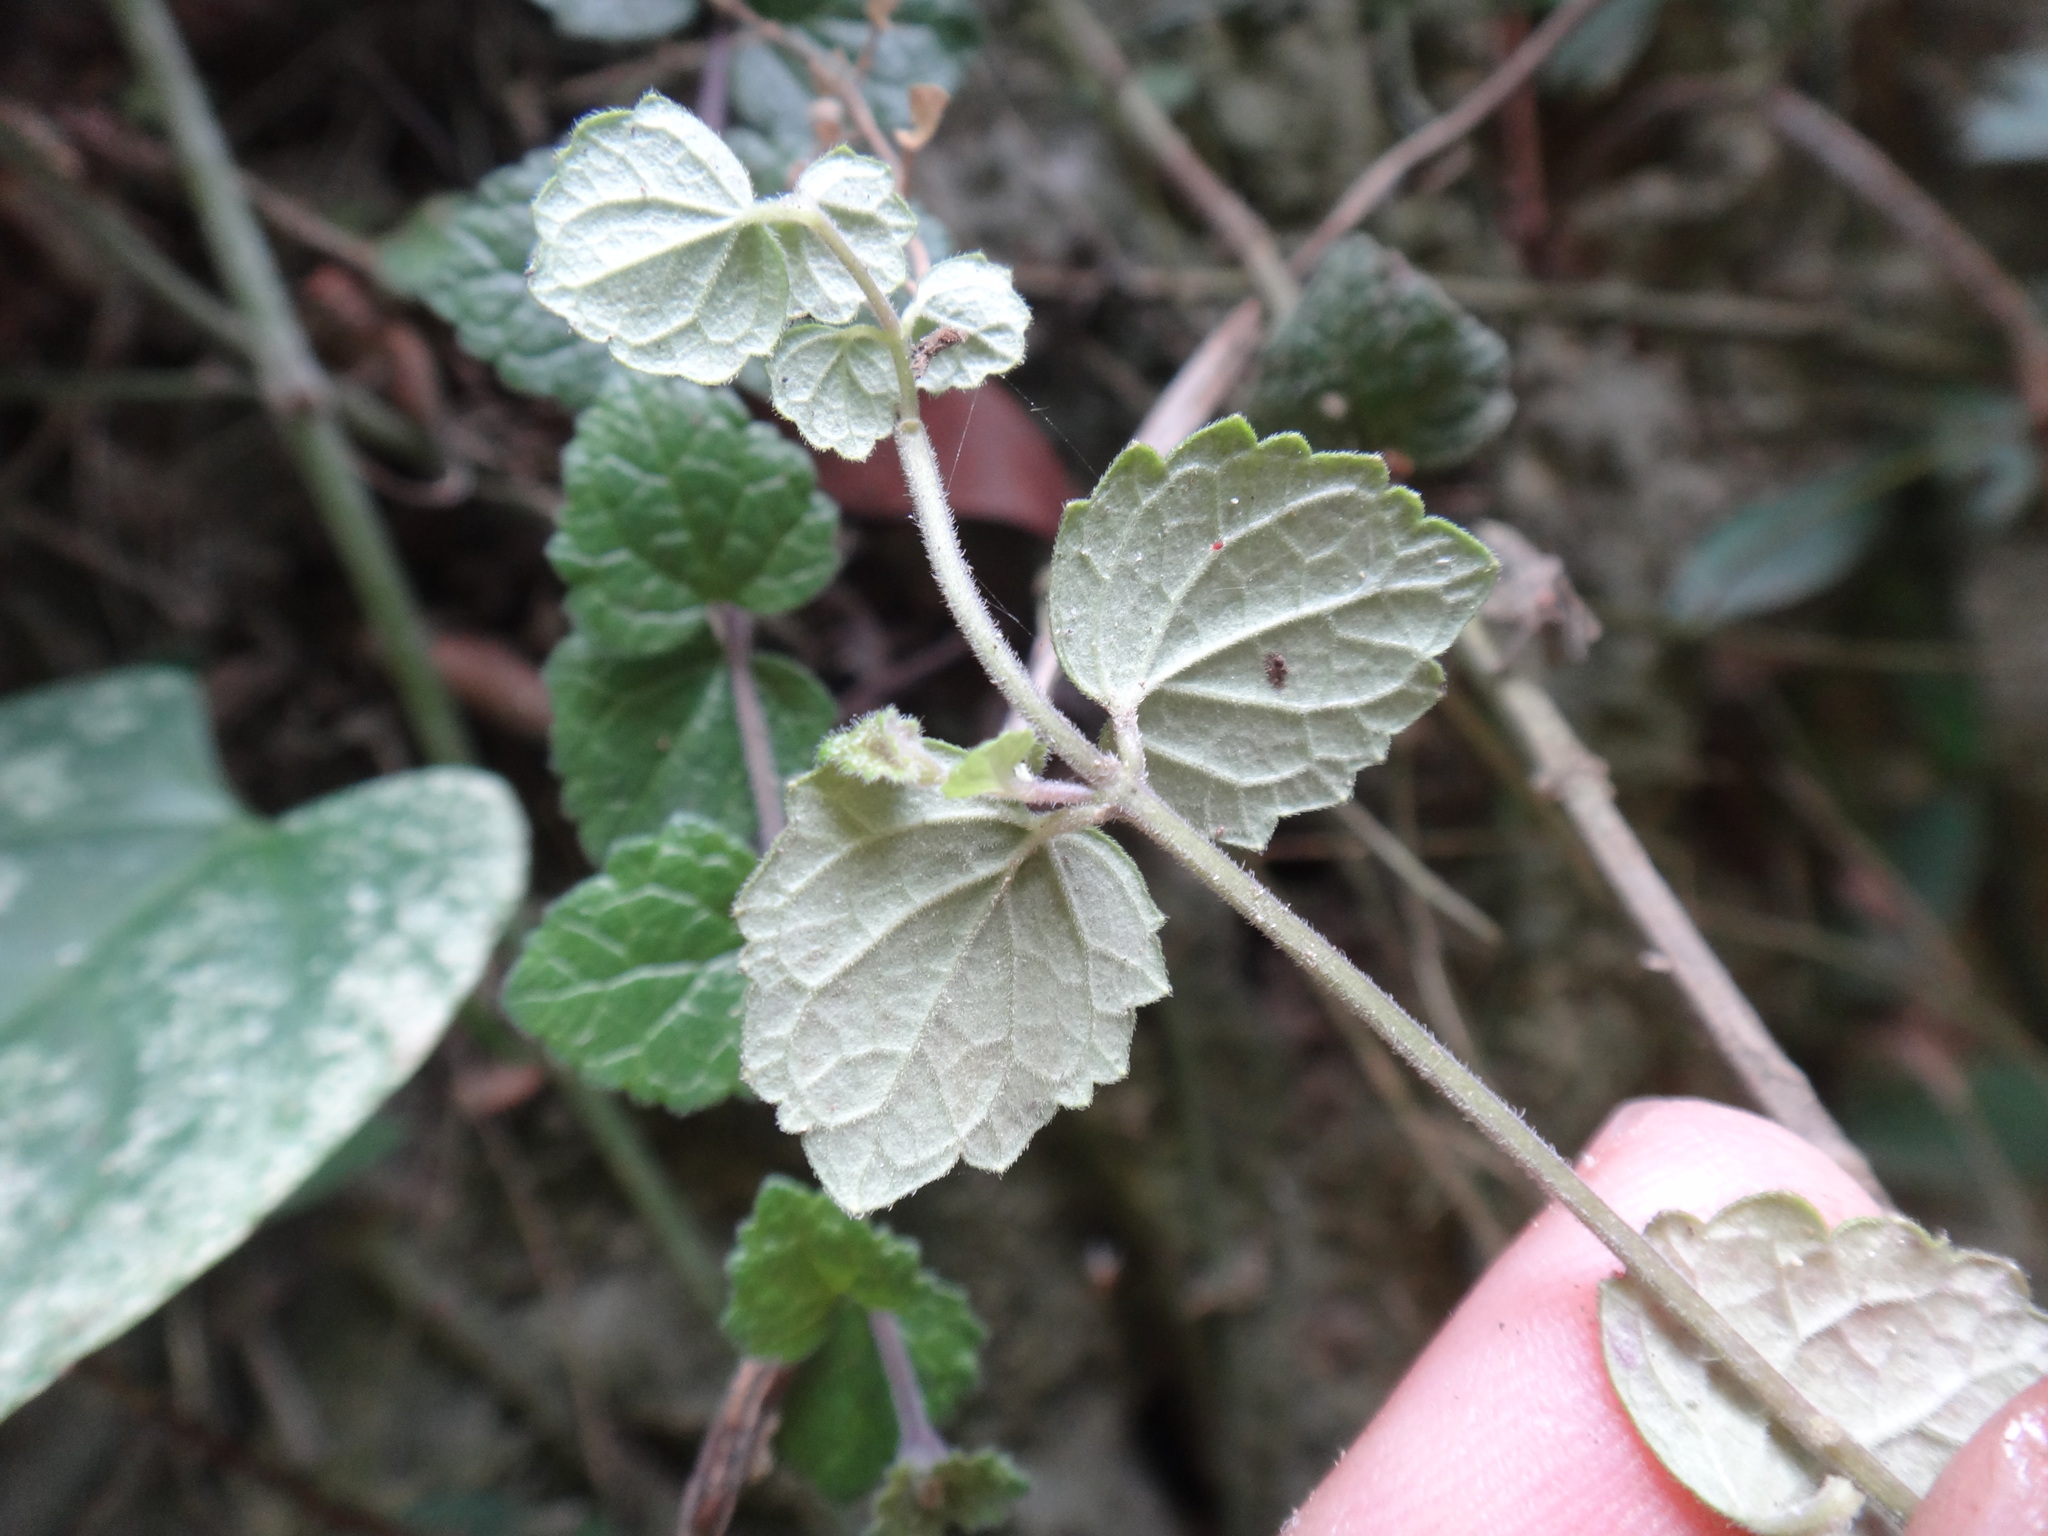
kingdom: Plantae
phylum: Tracheophyta
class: Magnoliopsida
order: Lamiales
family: Lamiaceae
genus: Scutellaria
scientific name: Scutellaria playfairii
